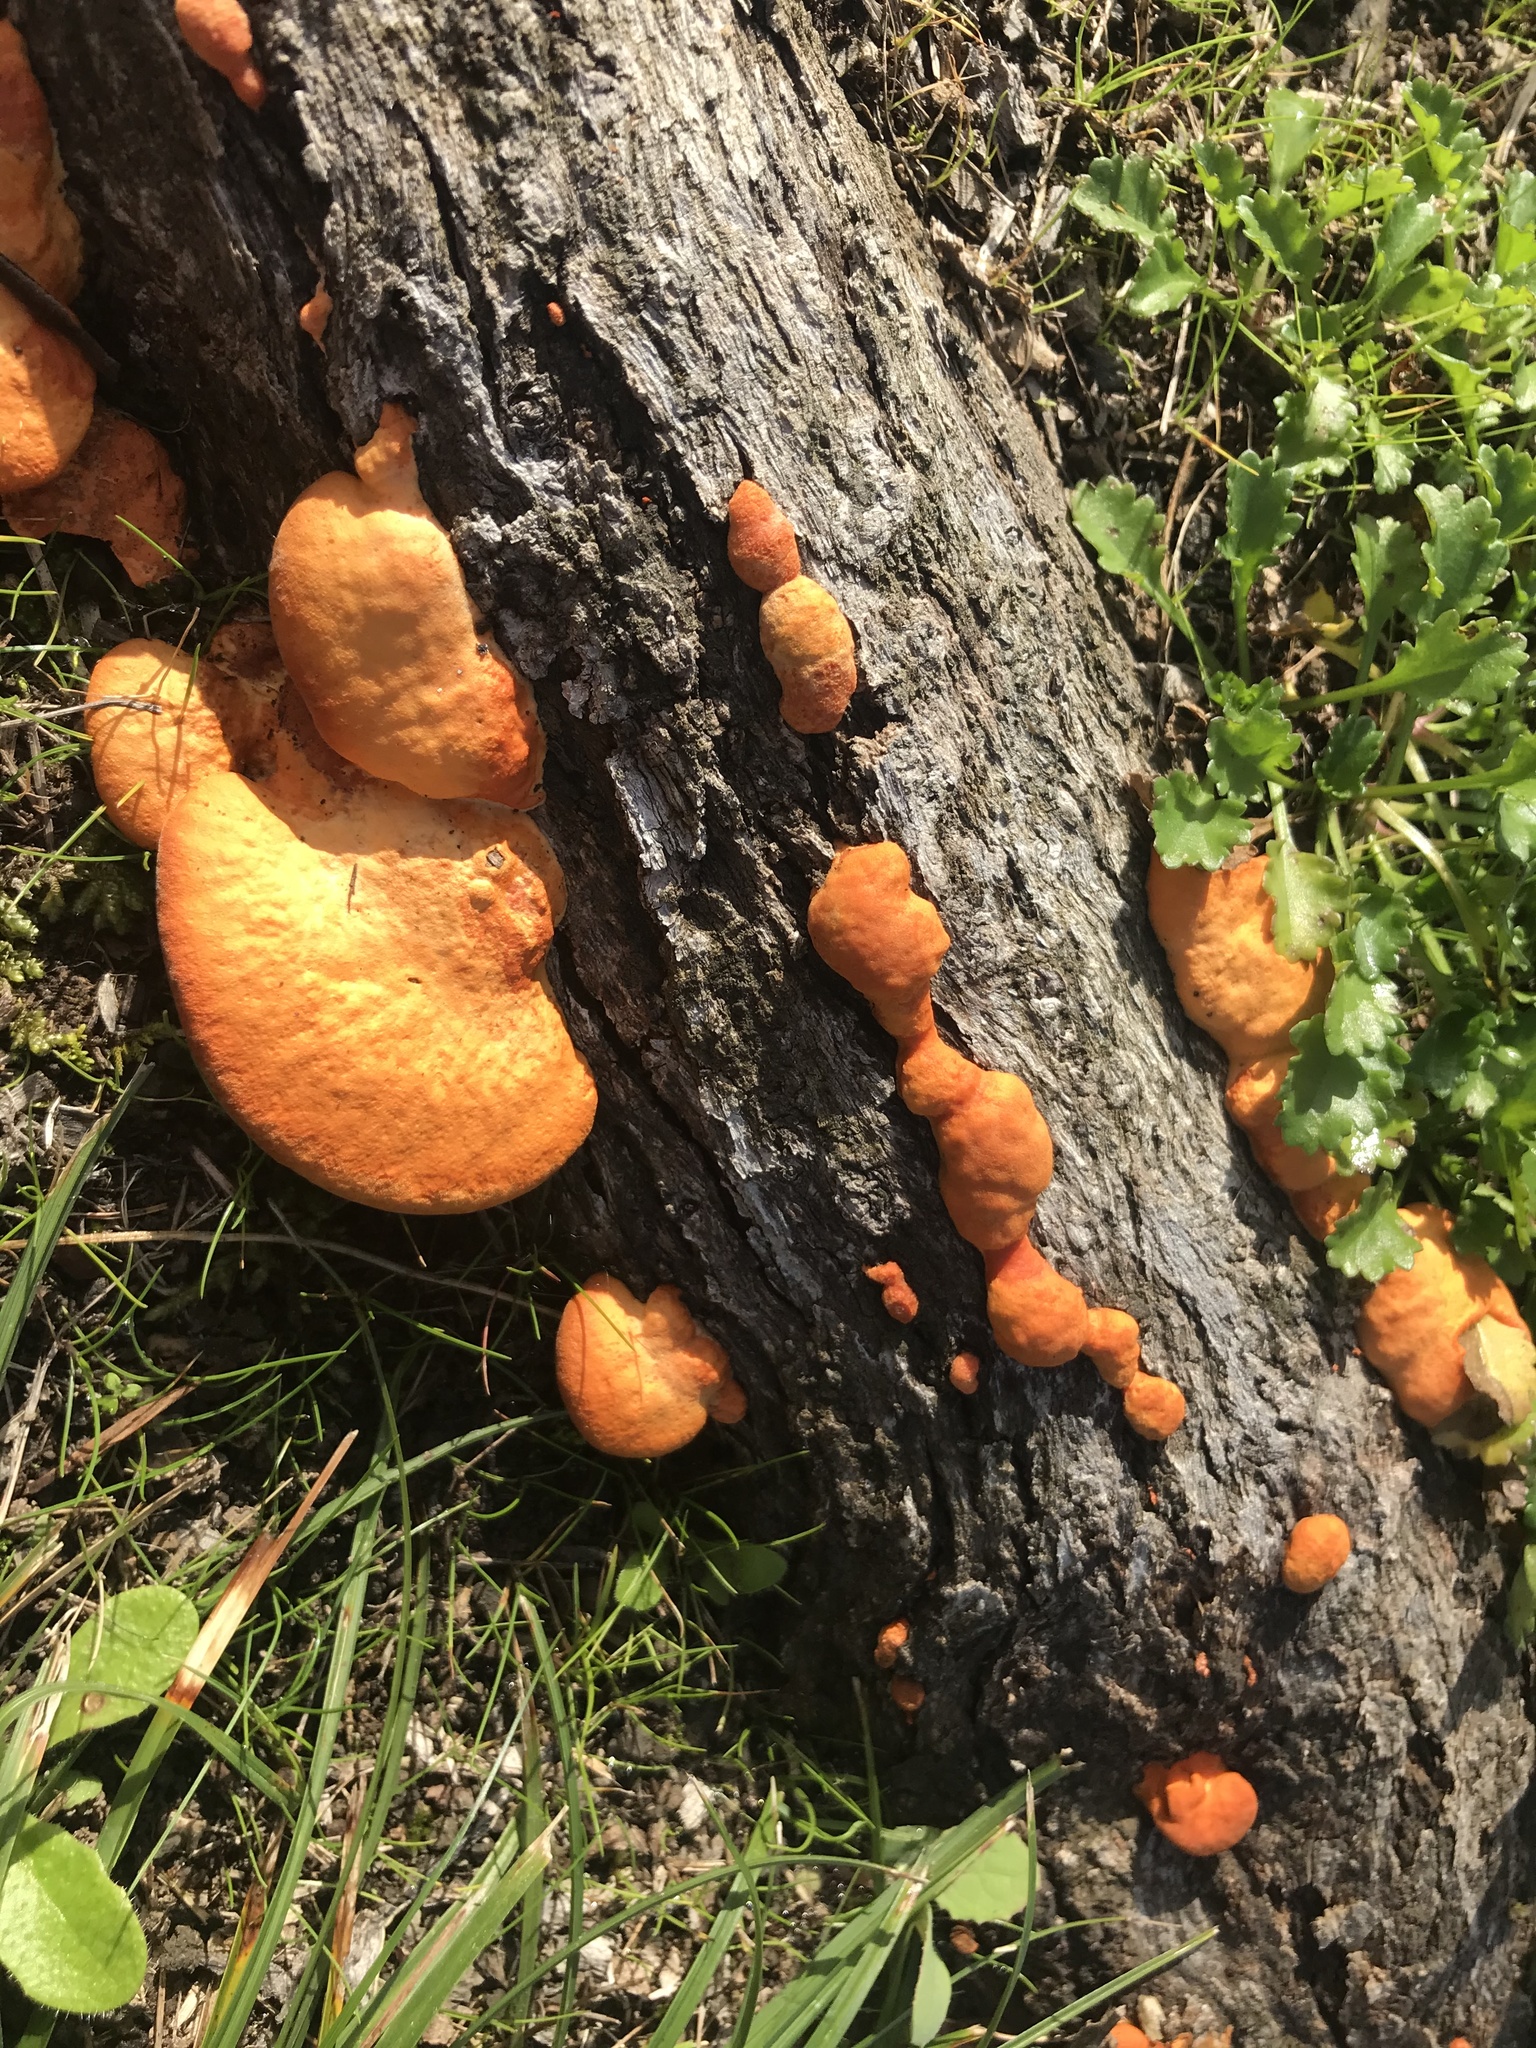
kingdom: Fungi
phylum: Basidiomycota
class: Agaricomycetes
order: Polyporales
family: Polyporaceae
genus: Trametes
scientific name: Trametes coccinea
